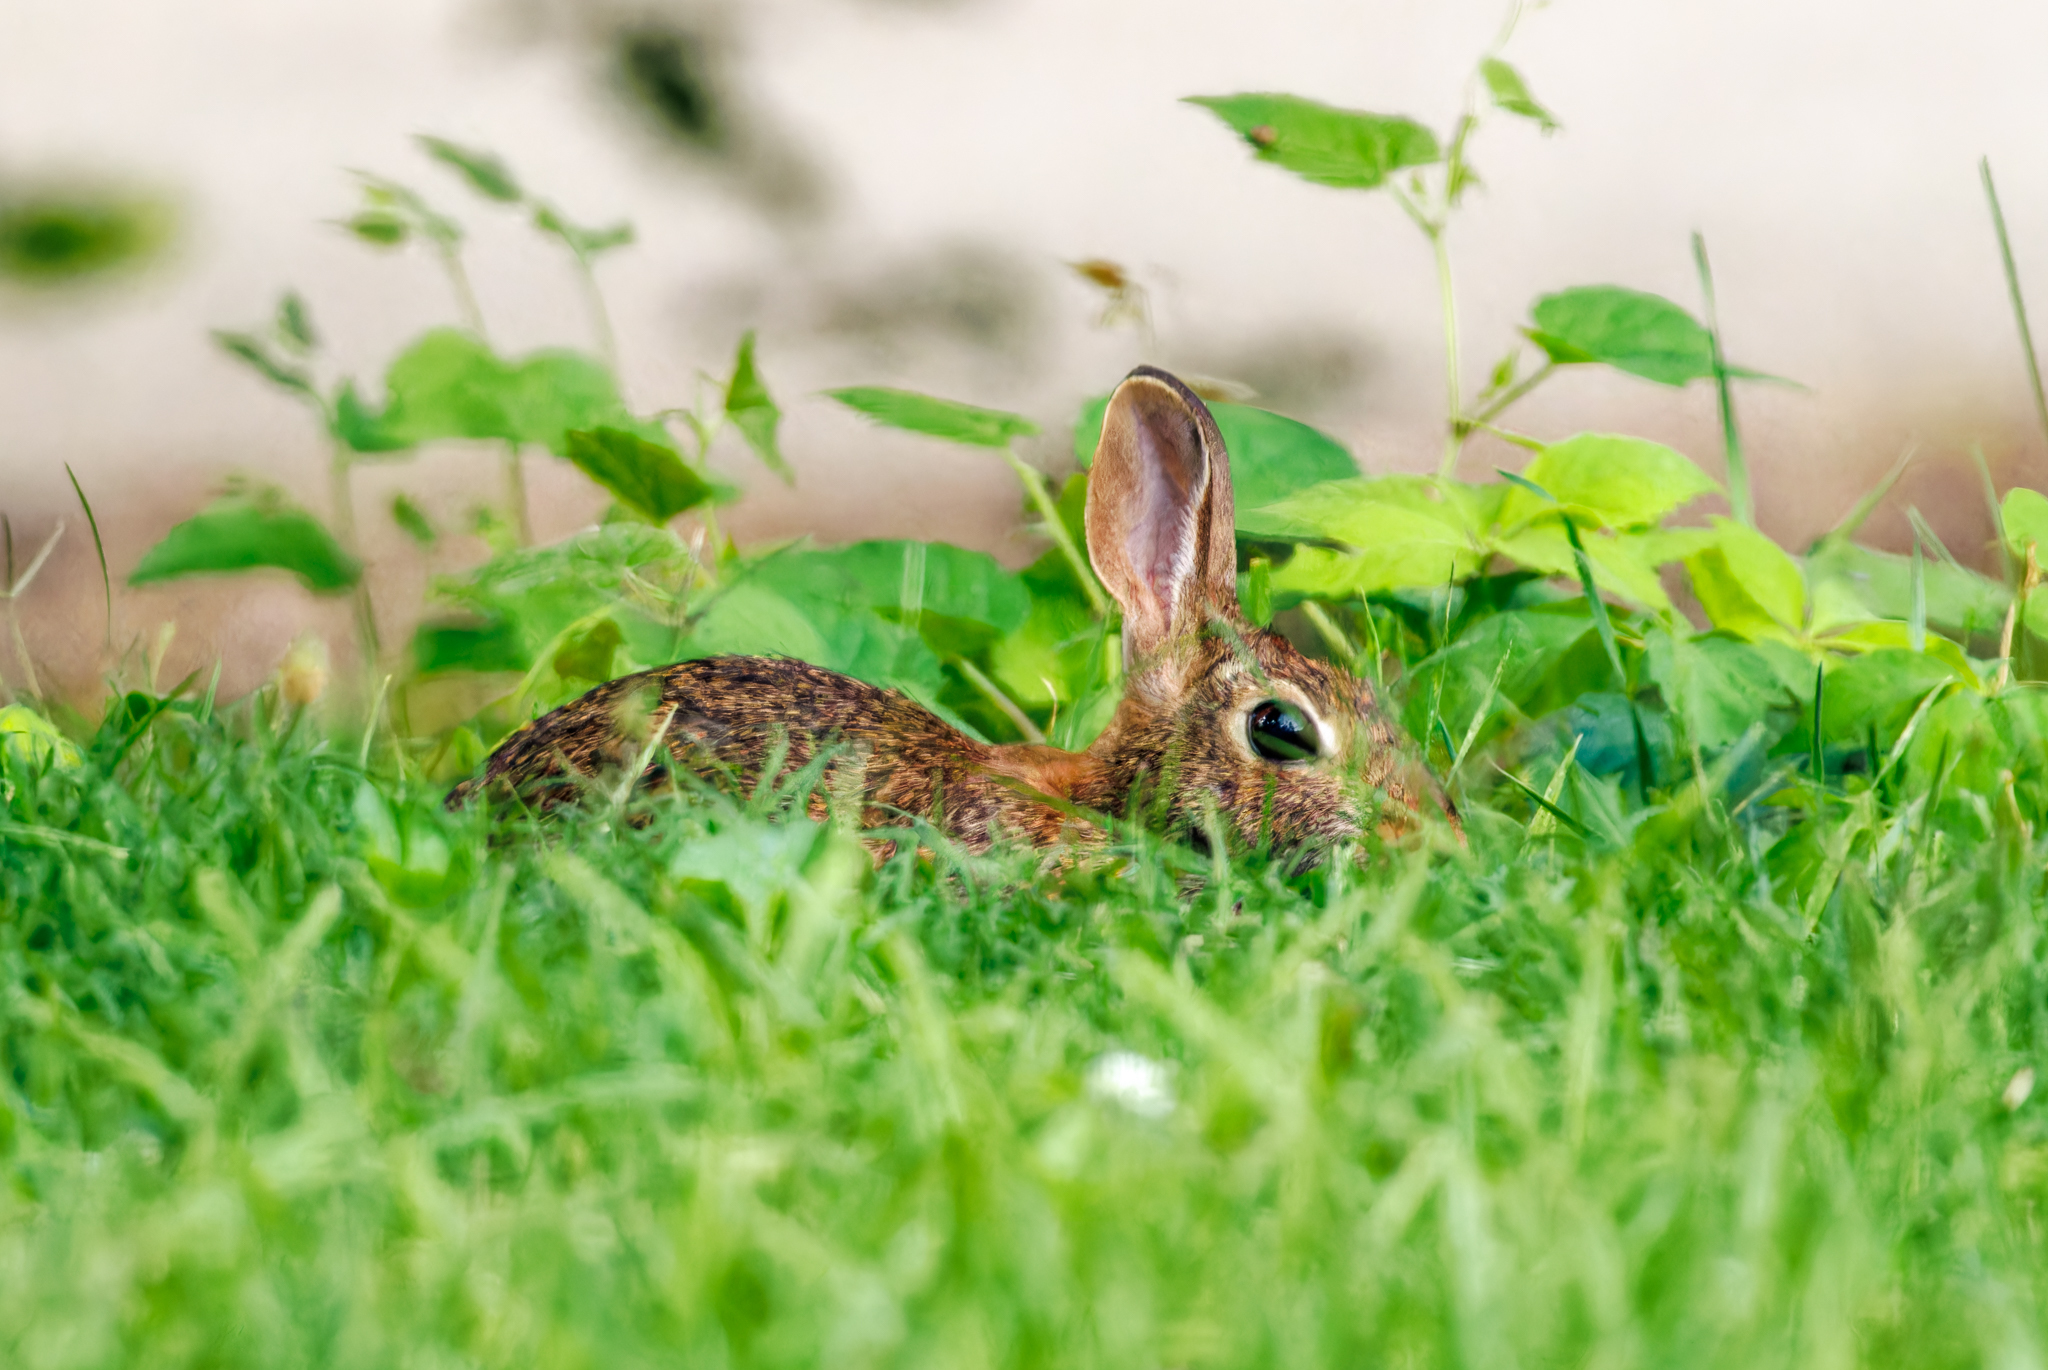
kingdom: Animalia
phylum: Chordata
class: Mammalia
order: Lagomorpha
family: Leporidae
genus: Sylvilagus
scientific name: Sylvilagus floridanus
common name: Eastern cottontail
